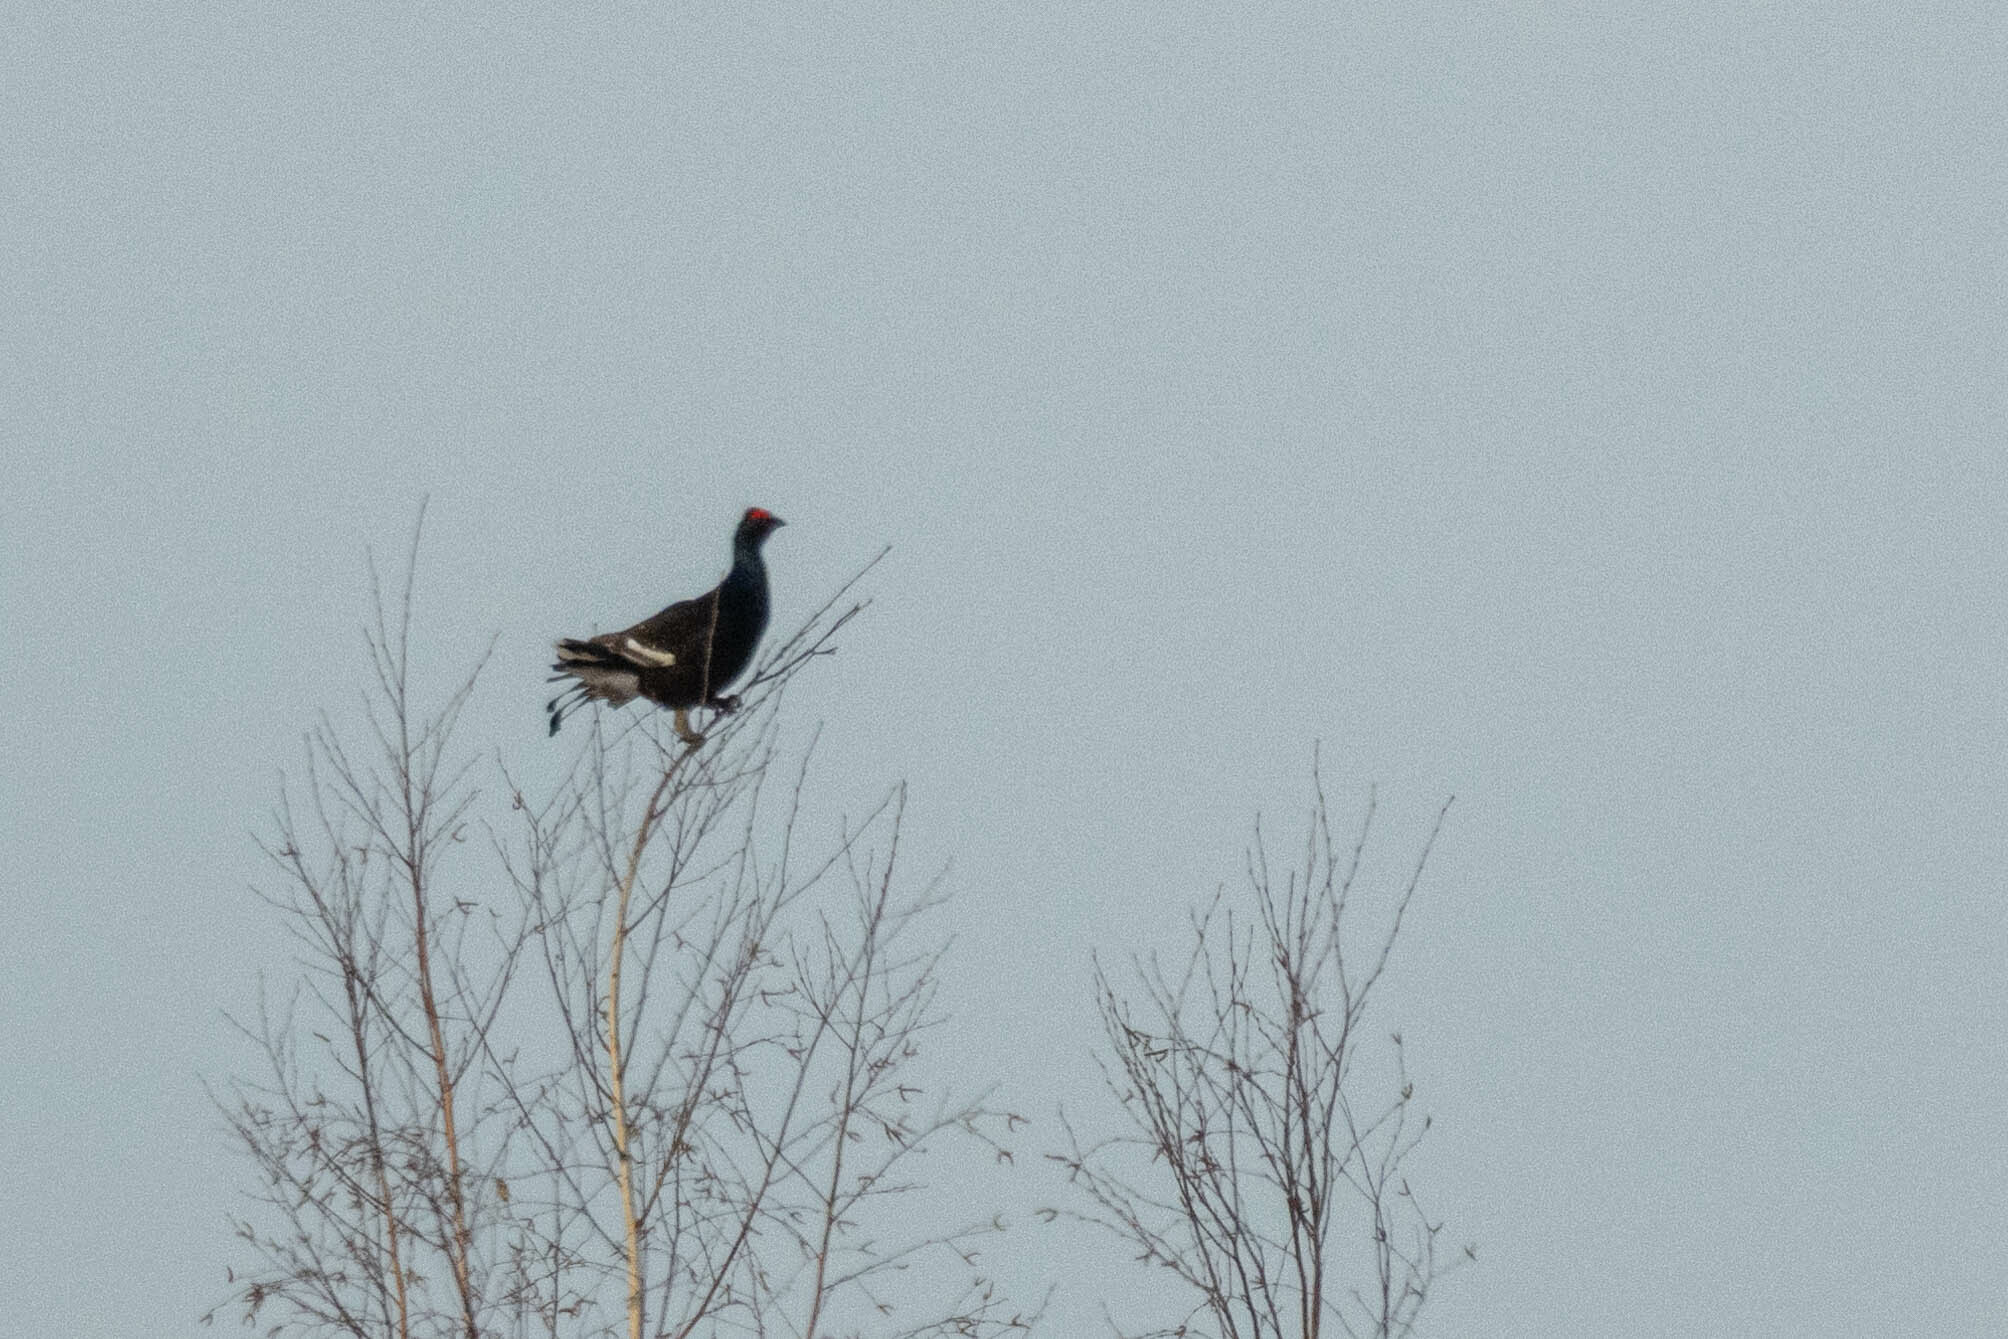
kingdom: Animalia
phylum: Chordata
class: Aves
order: Galliformes
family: Phasianidae
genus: Lyrurus
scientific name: Lyrurus tetrix
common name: Black grouse
